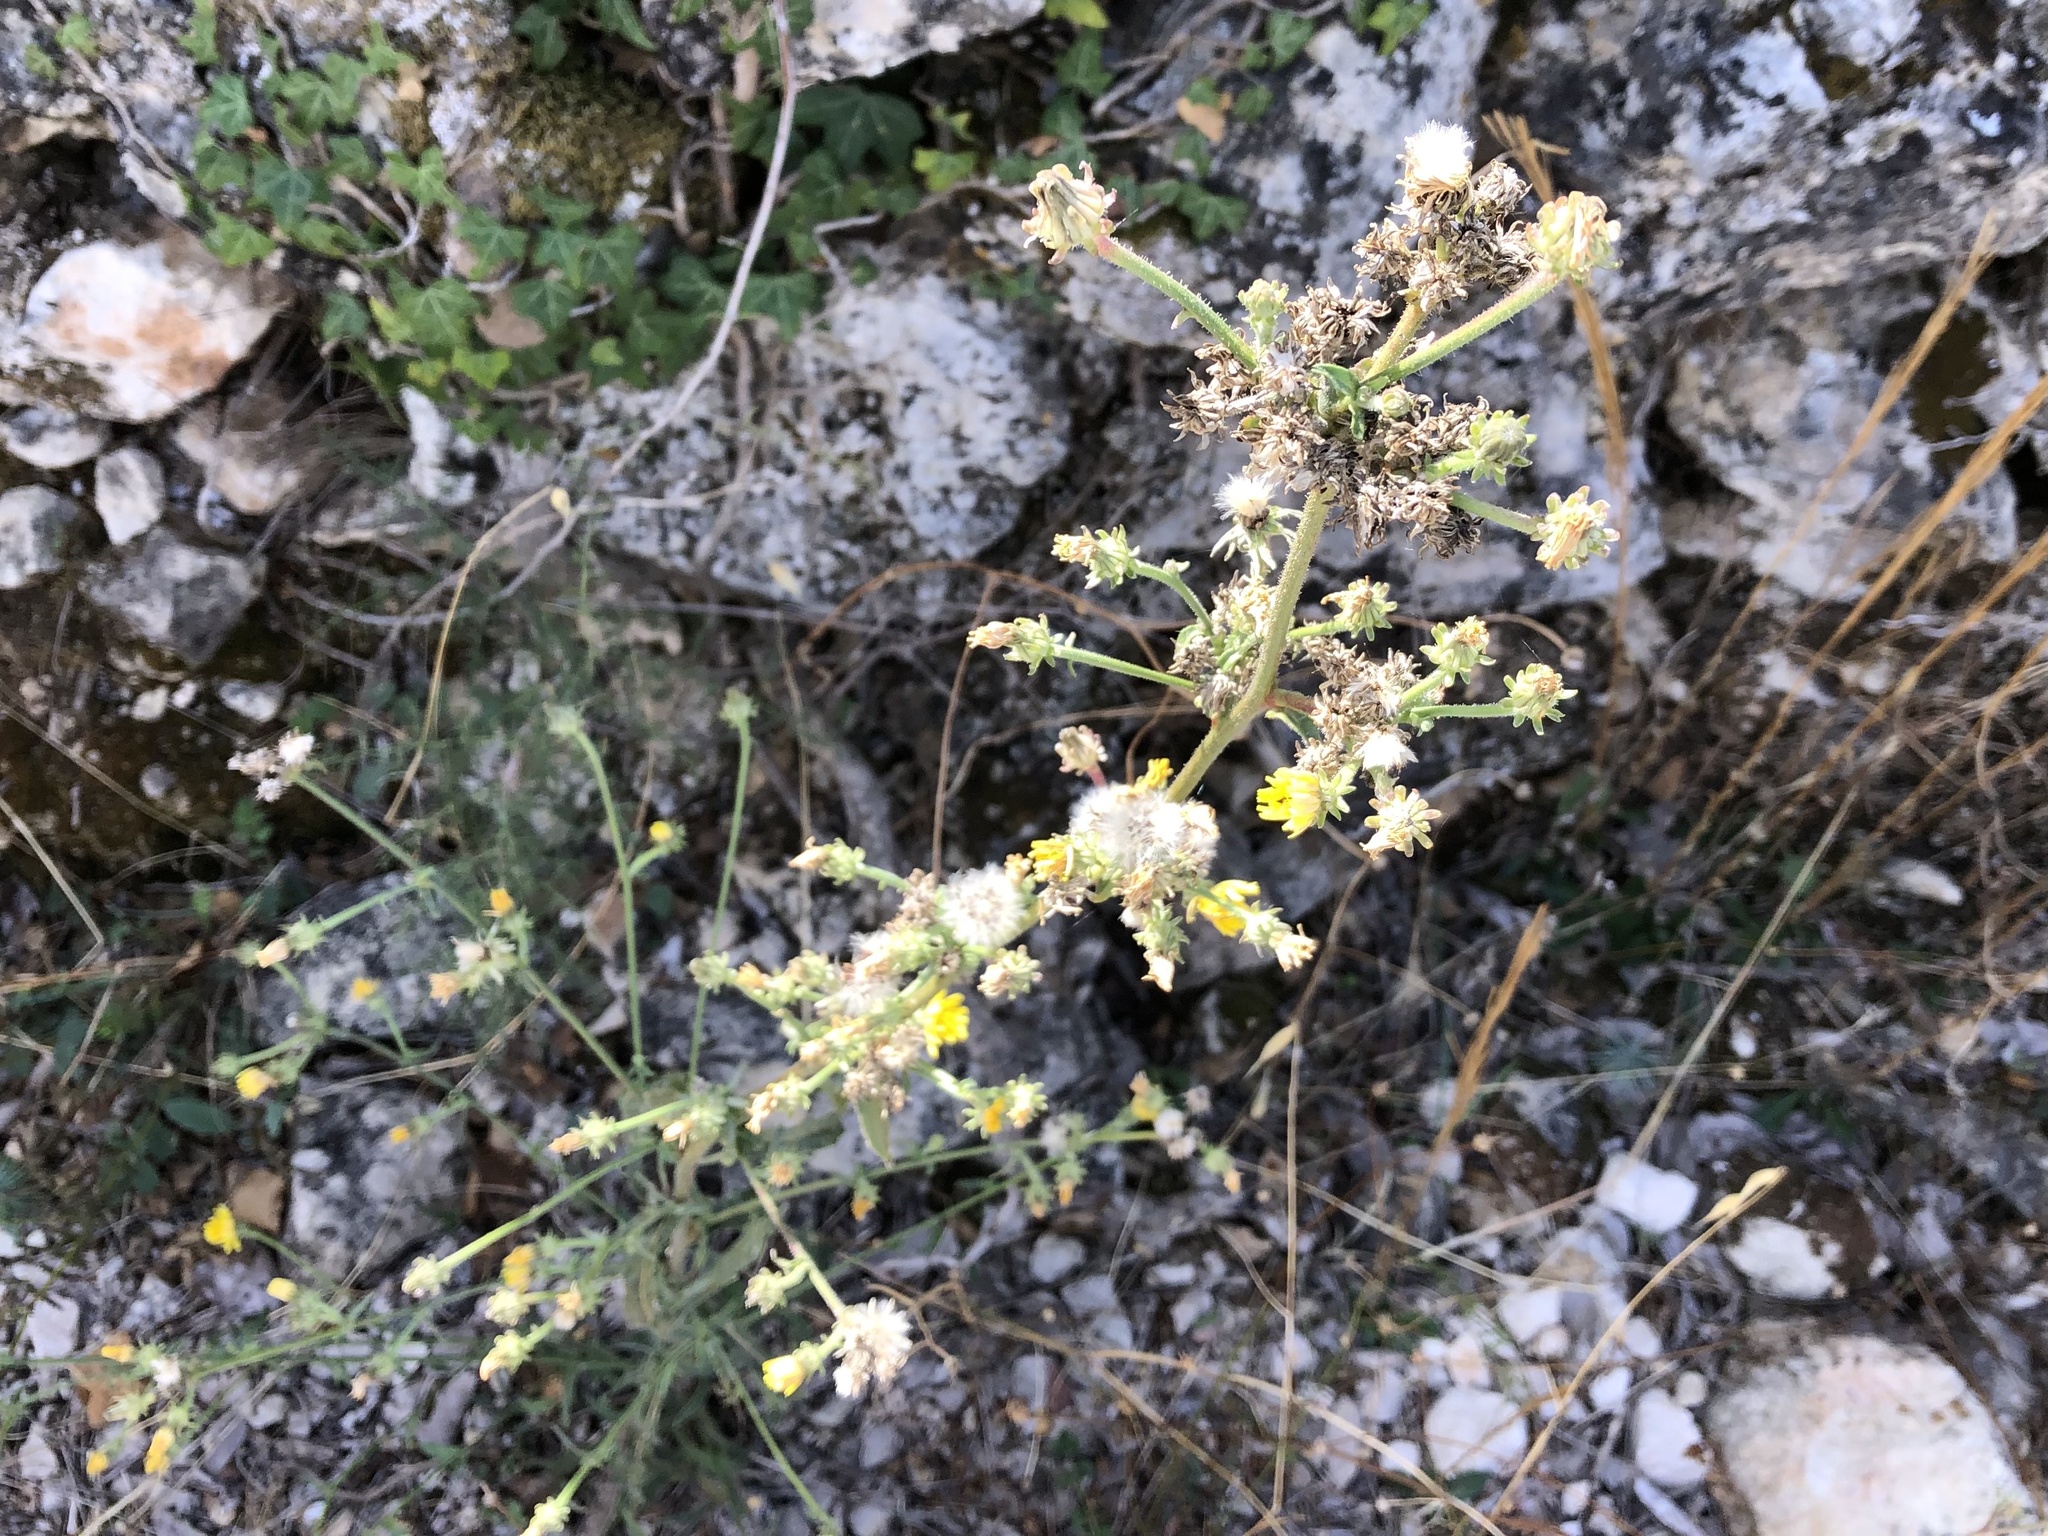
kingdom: Plantae
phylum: Tracheophyta
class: Magnoliopsida
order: Asterales
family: Asteraceae
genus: Picris
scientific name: Picris hieracioides
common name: Hawkweed oxtongue
